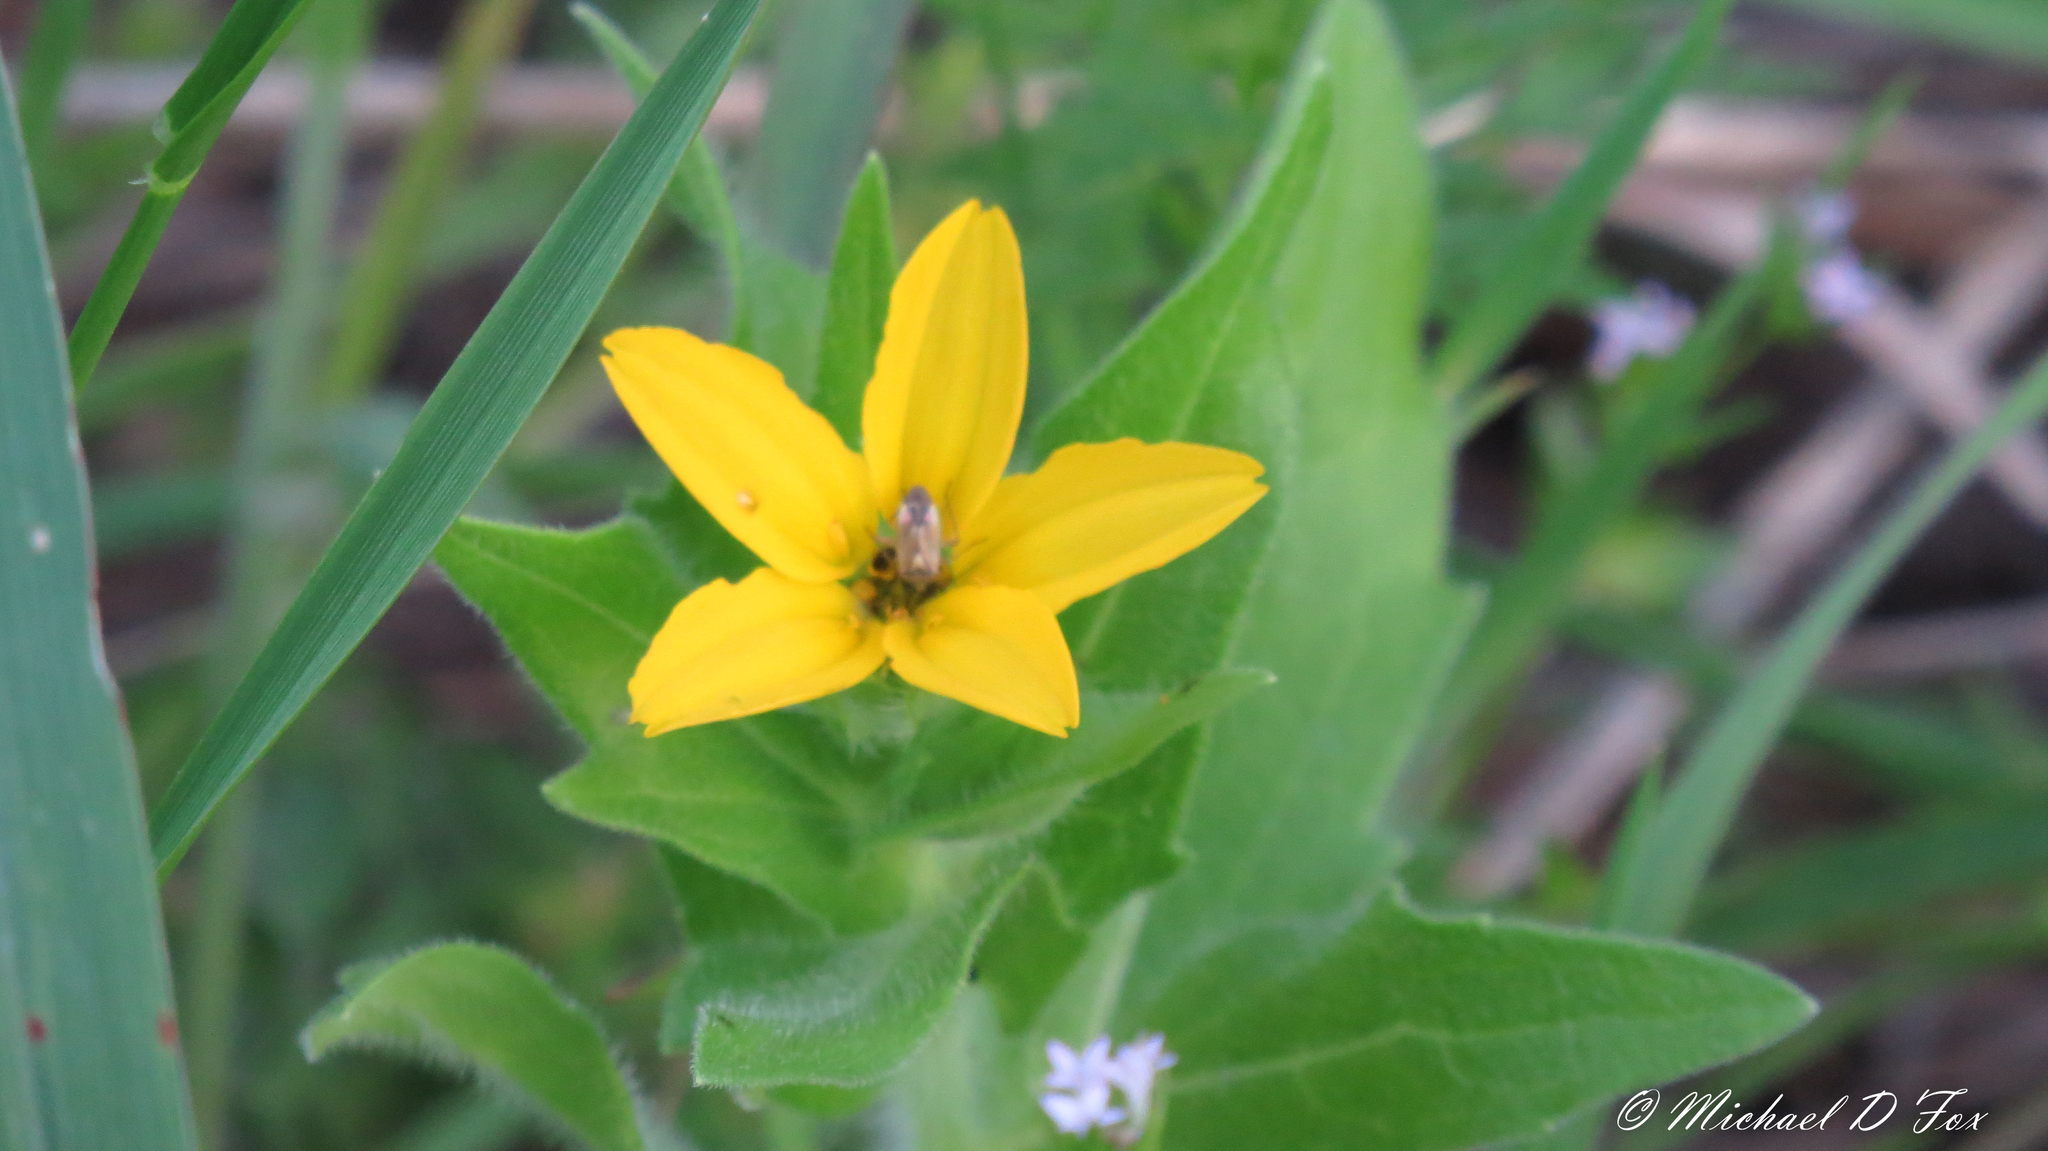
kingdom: Plantae
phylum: Tracheophyta
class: Magnoliopsida
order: Asterales
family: Asteraceae
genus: Lindheimera
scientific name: Lindheimera texana
